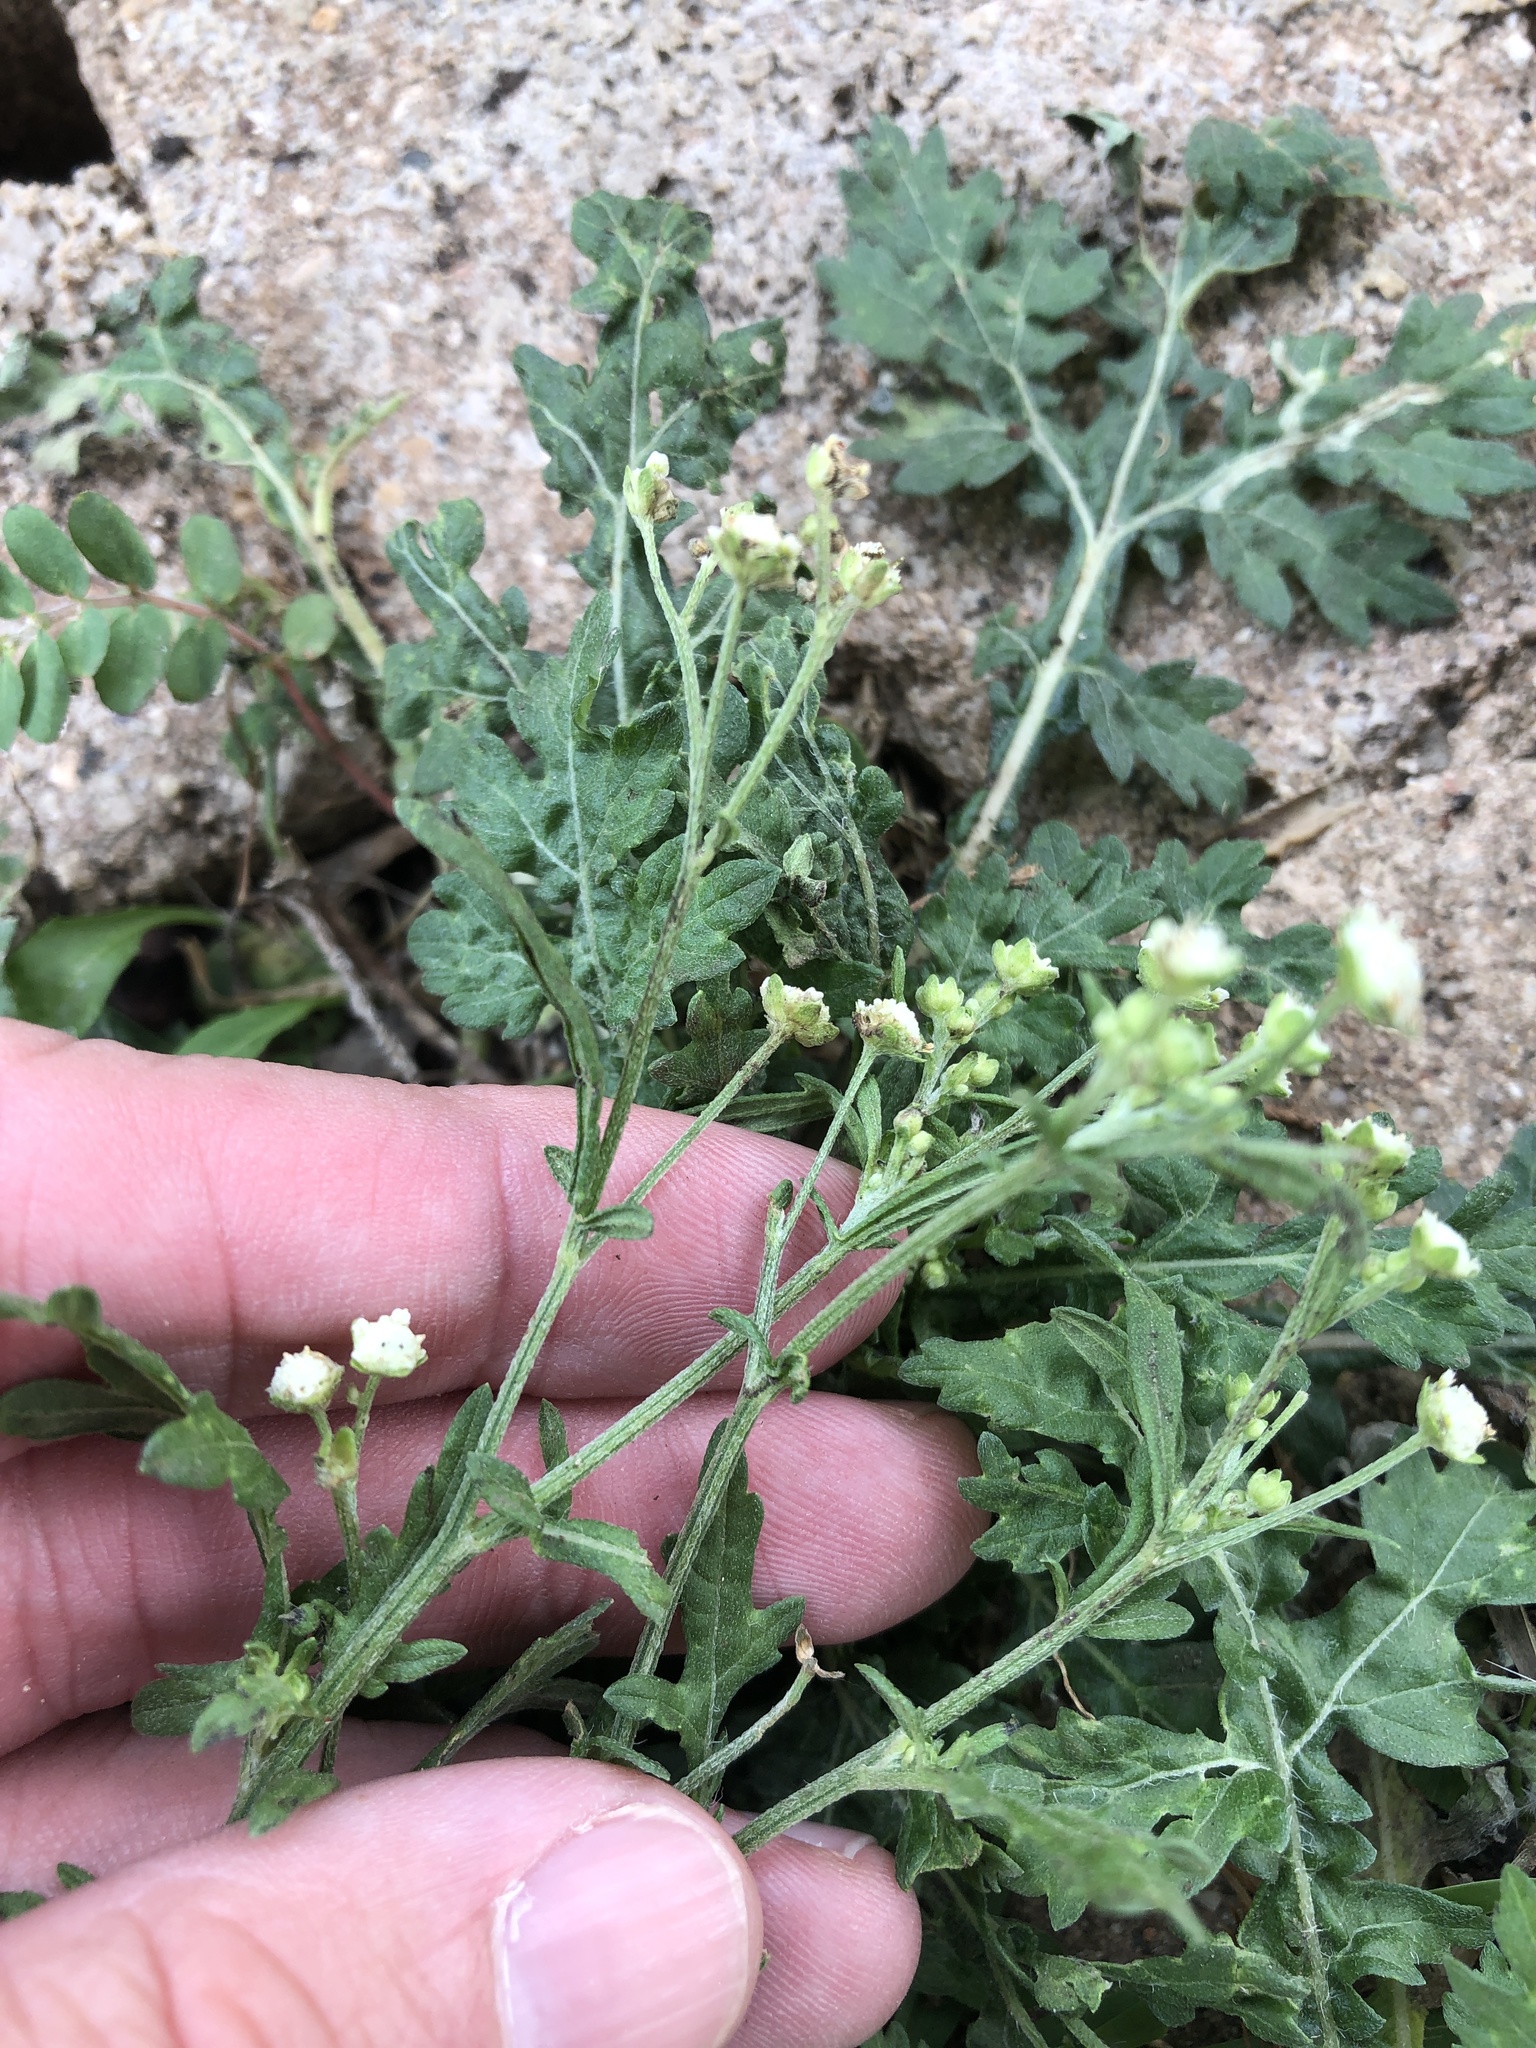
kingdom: Plantae
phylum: Tracheophyta
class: Magnoliopsida
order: Asterales
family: Asteraceae
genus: Parthenium
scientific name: Parthenium hysterophorus
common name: Santa maria feverfew
